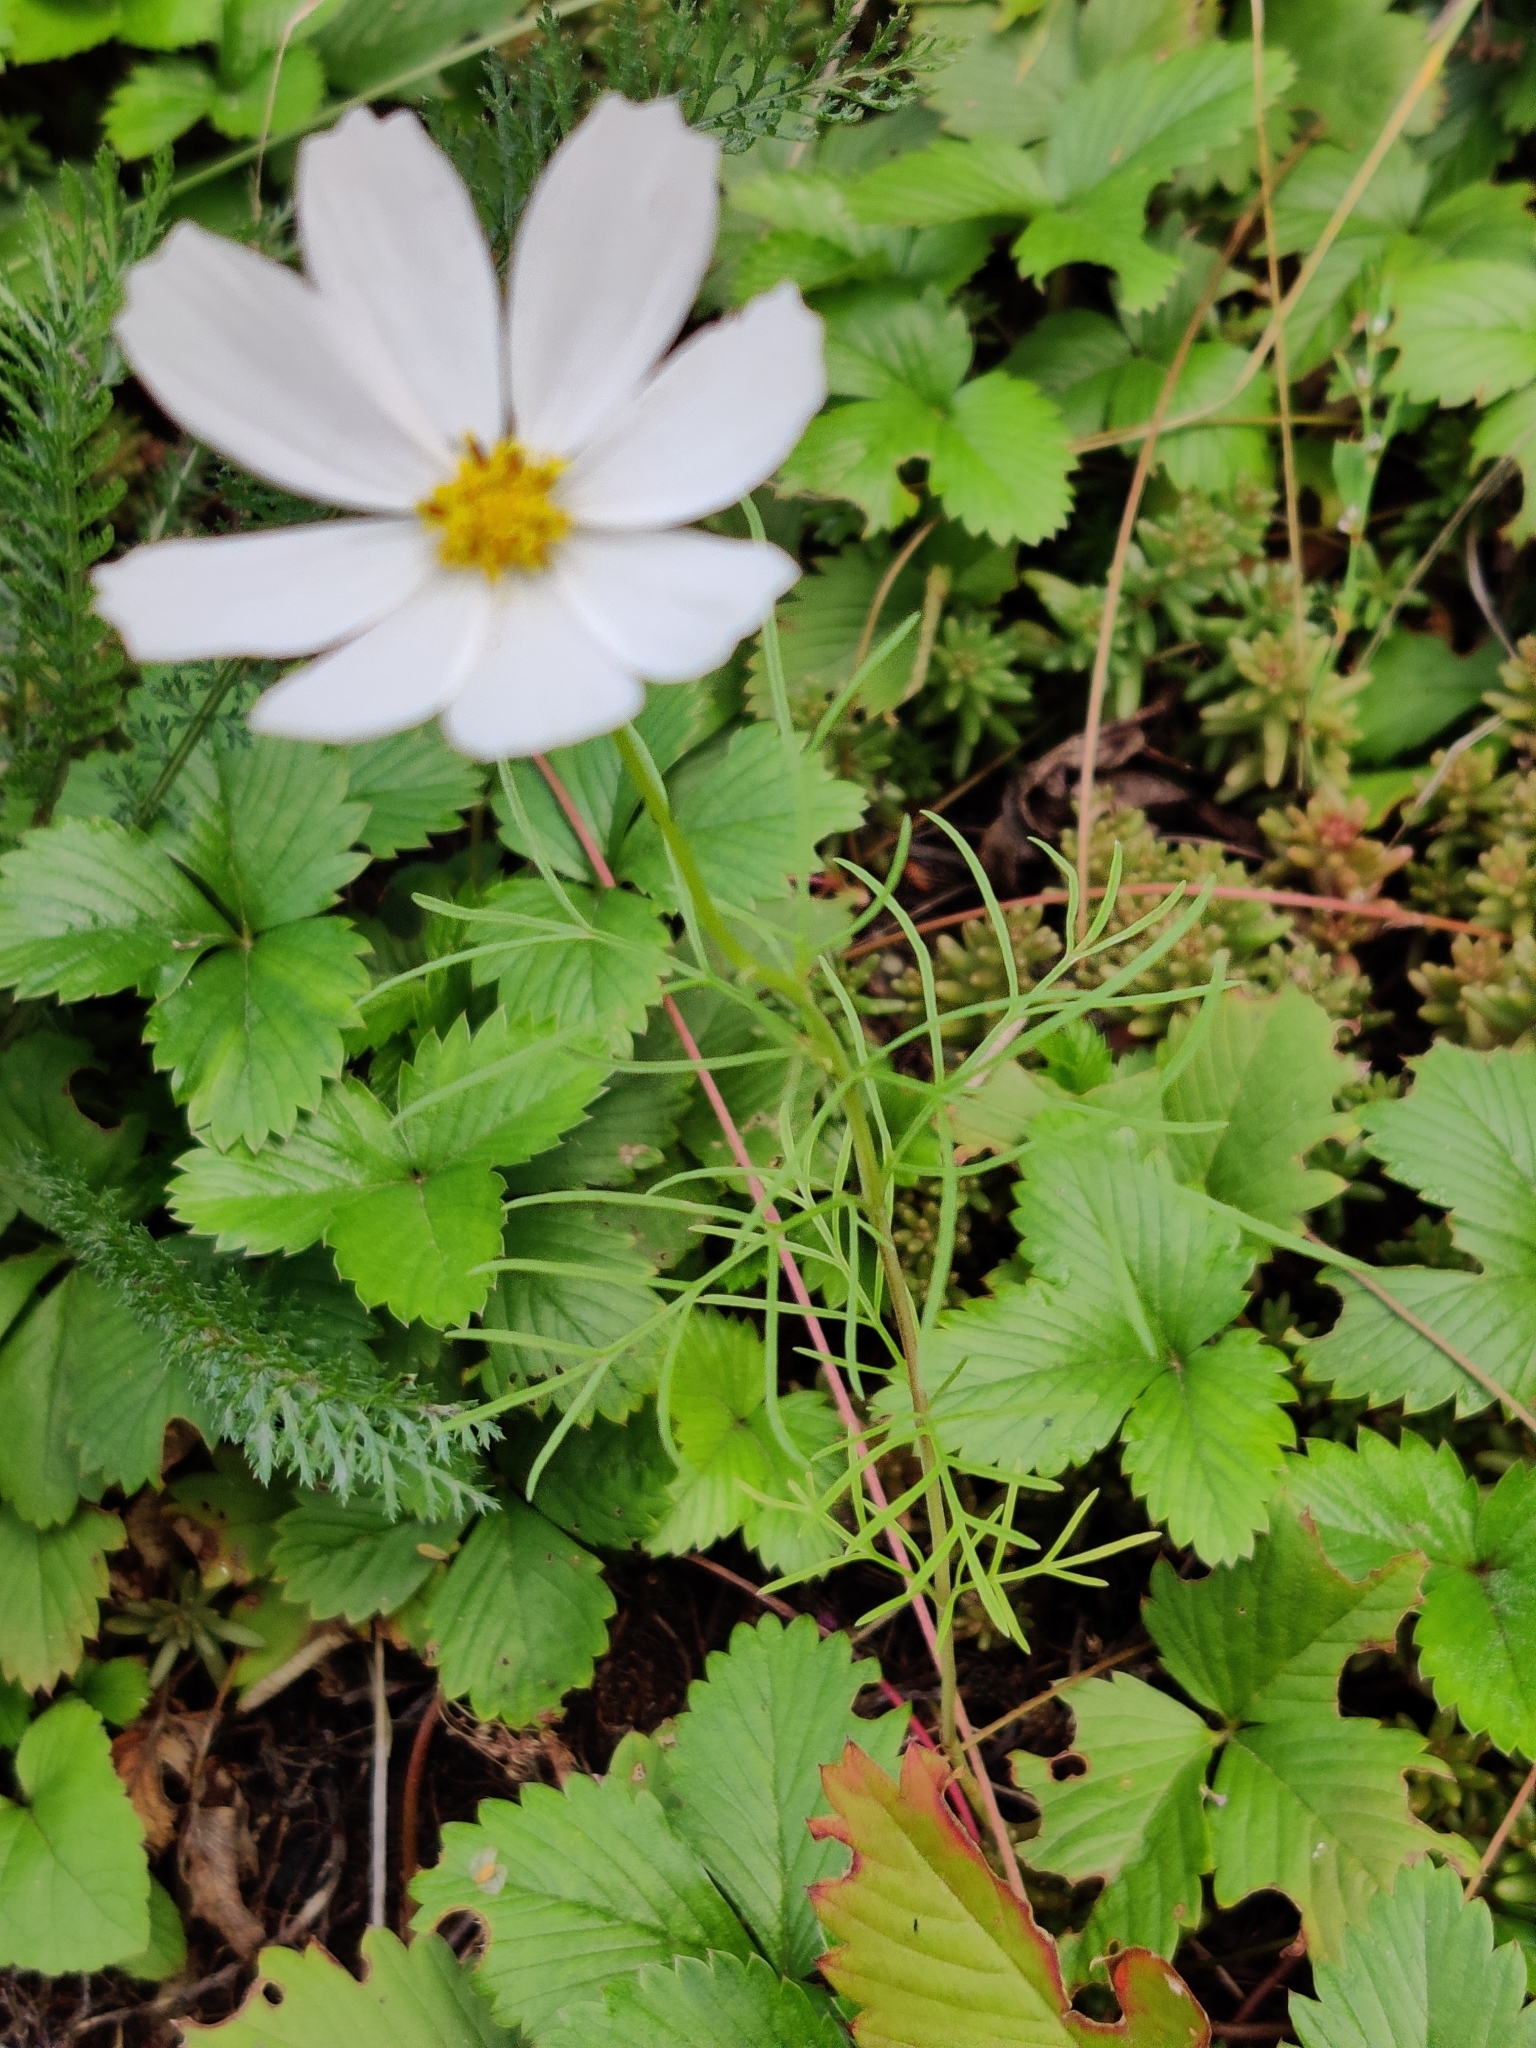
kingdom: Plantae
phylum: Tracheophyta
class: Magnoliopsida
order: Asterales
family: Asteraceae
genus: Cosmos
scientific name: Cosmos bipinnatus
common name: Garden cosmos
